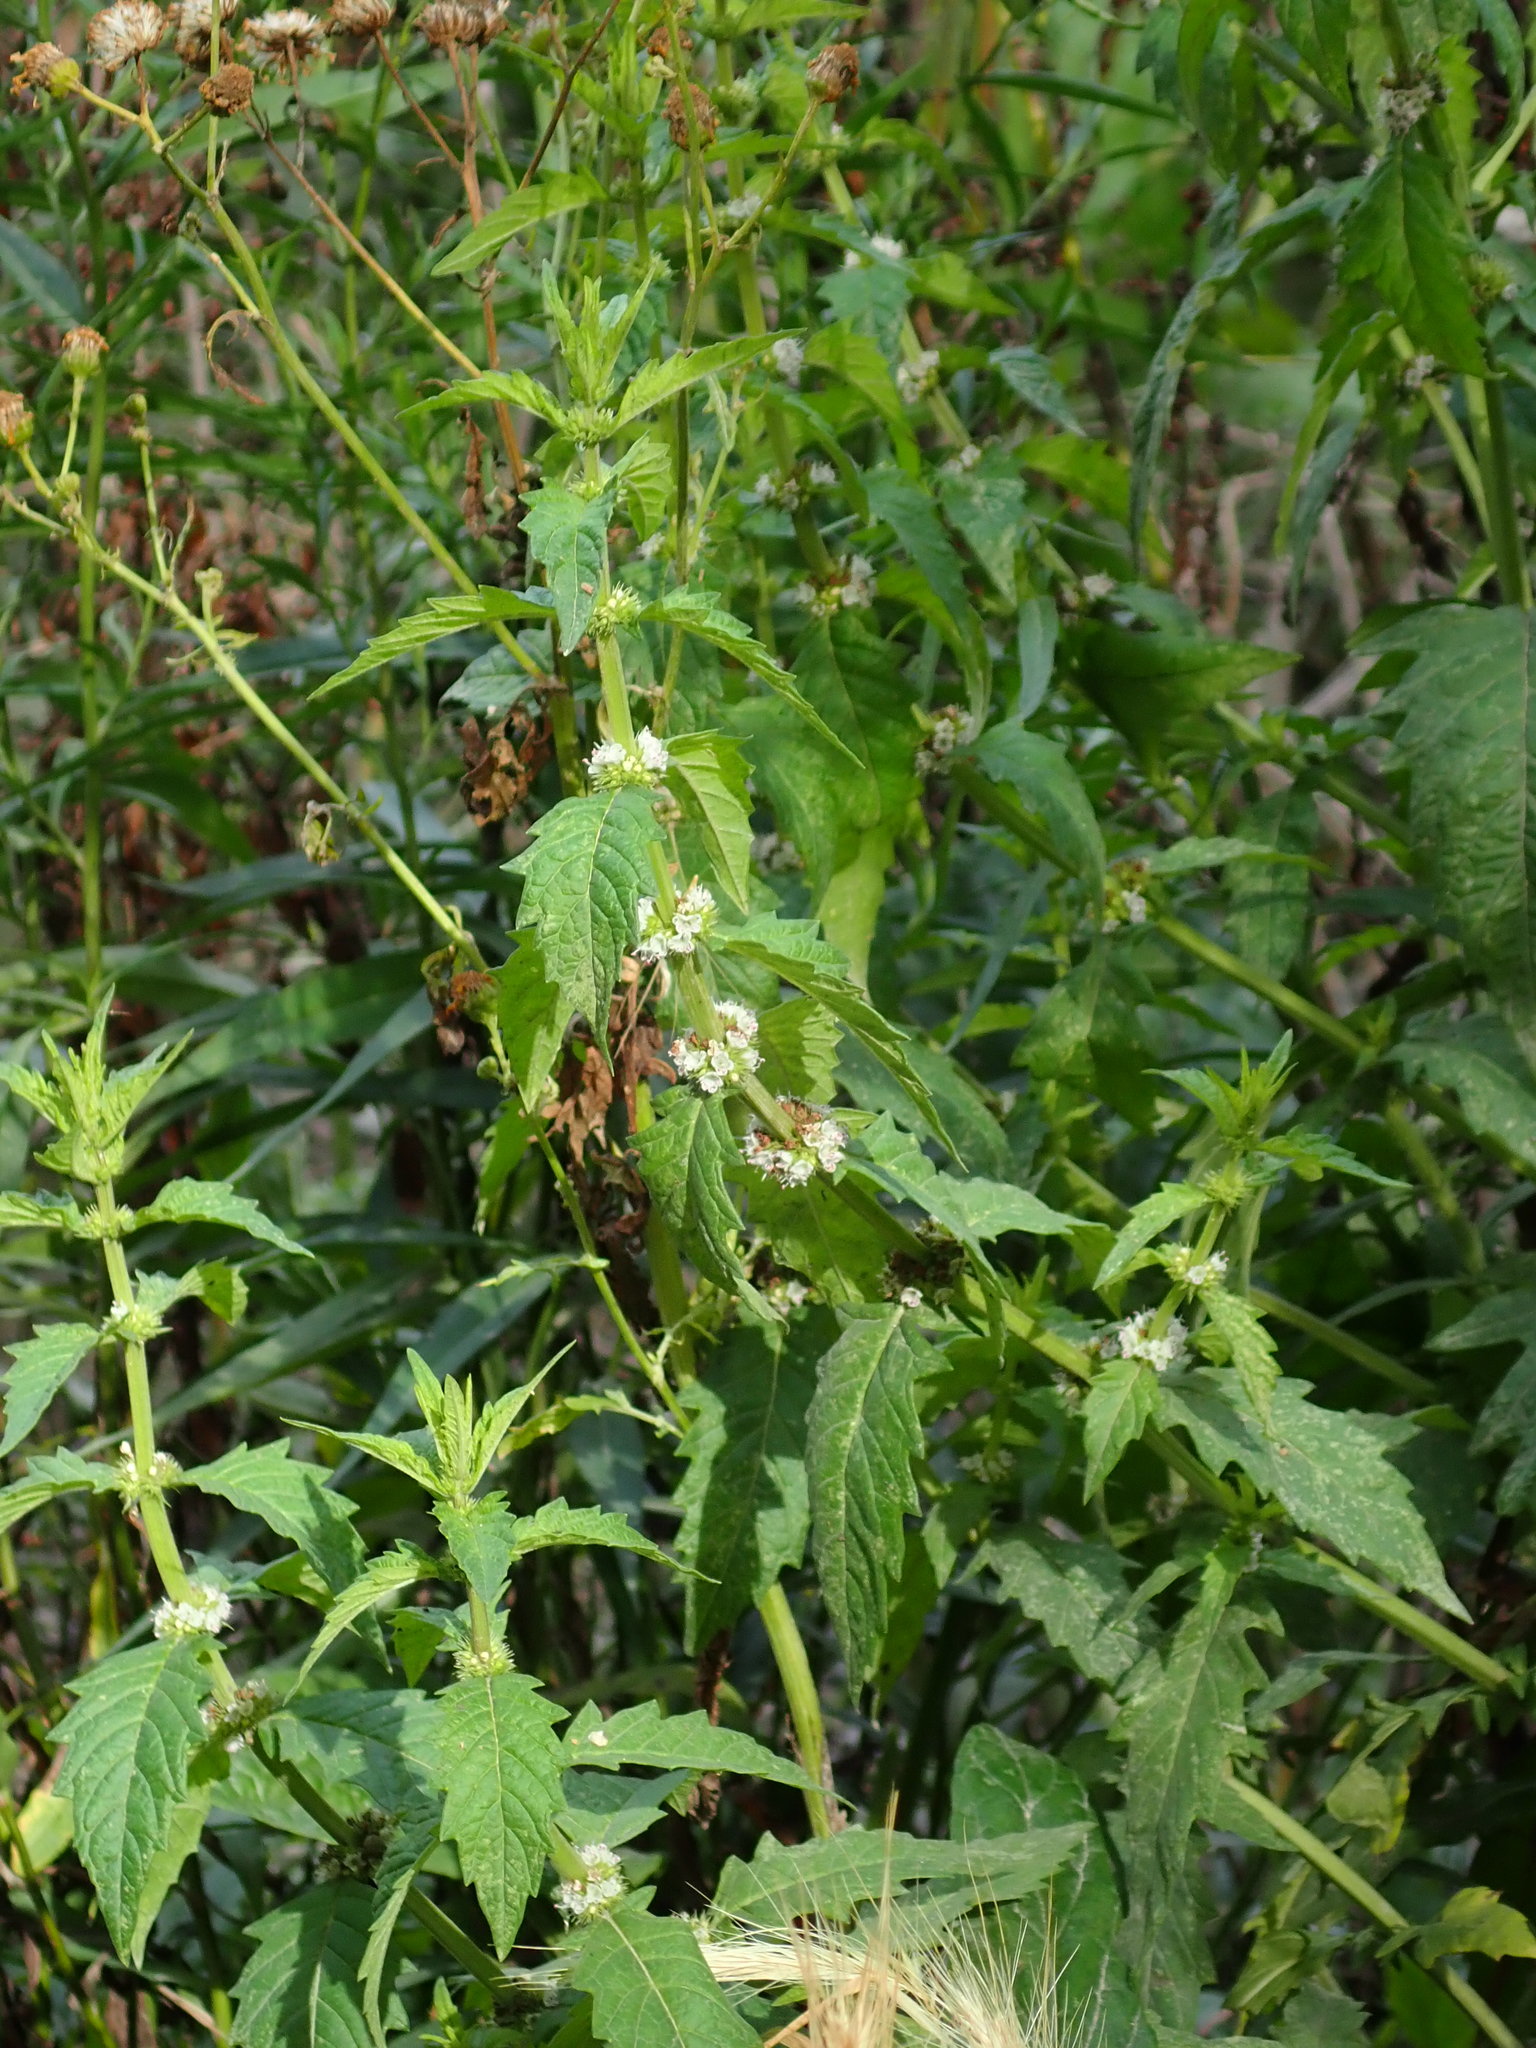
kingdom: Plantae
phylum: Tracheophyta
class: Magnoliopsida
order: Lamiales
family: Lamiaceae
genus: Lycopus
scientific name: Lycopus europaeus
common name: European bugleweed
